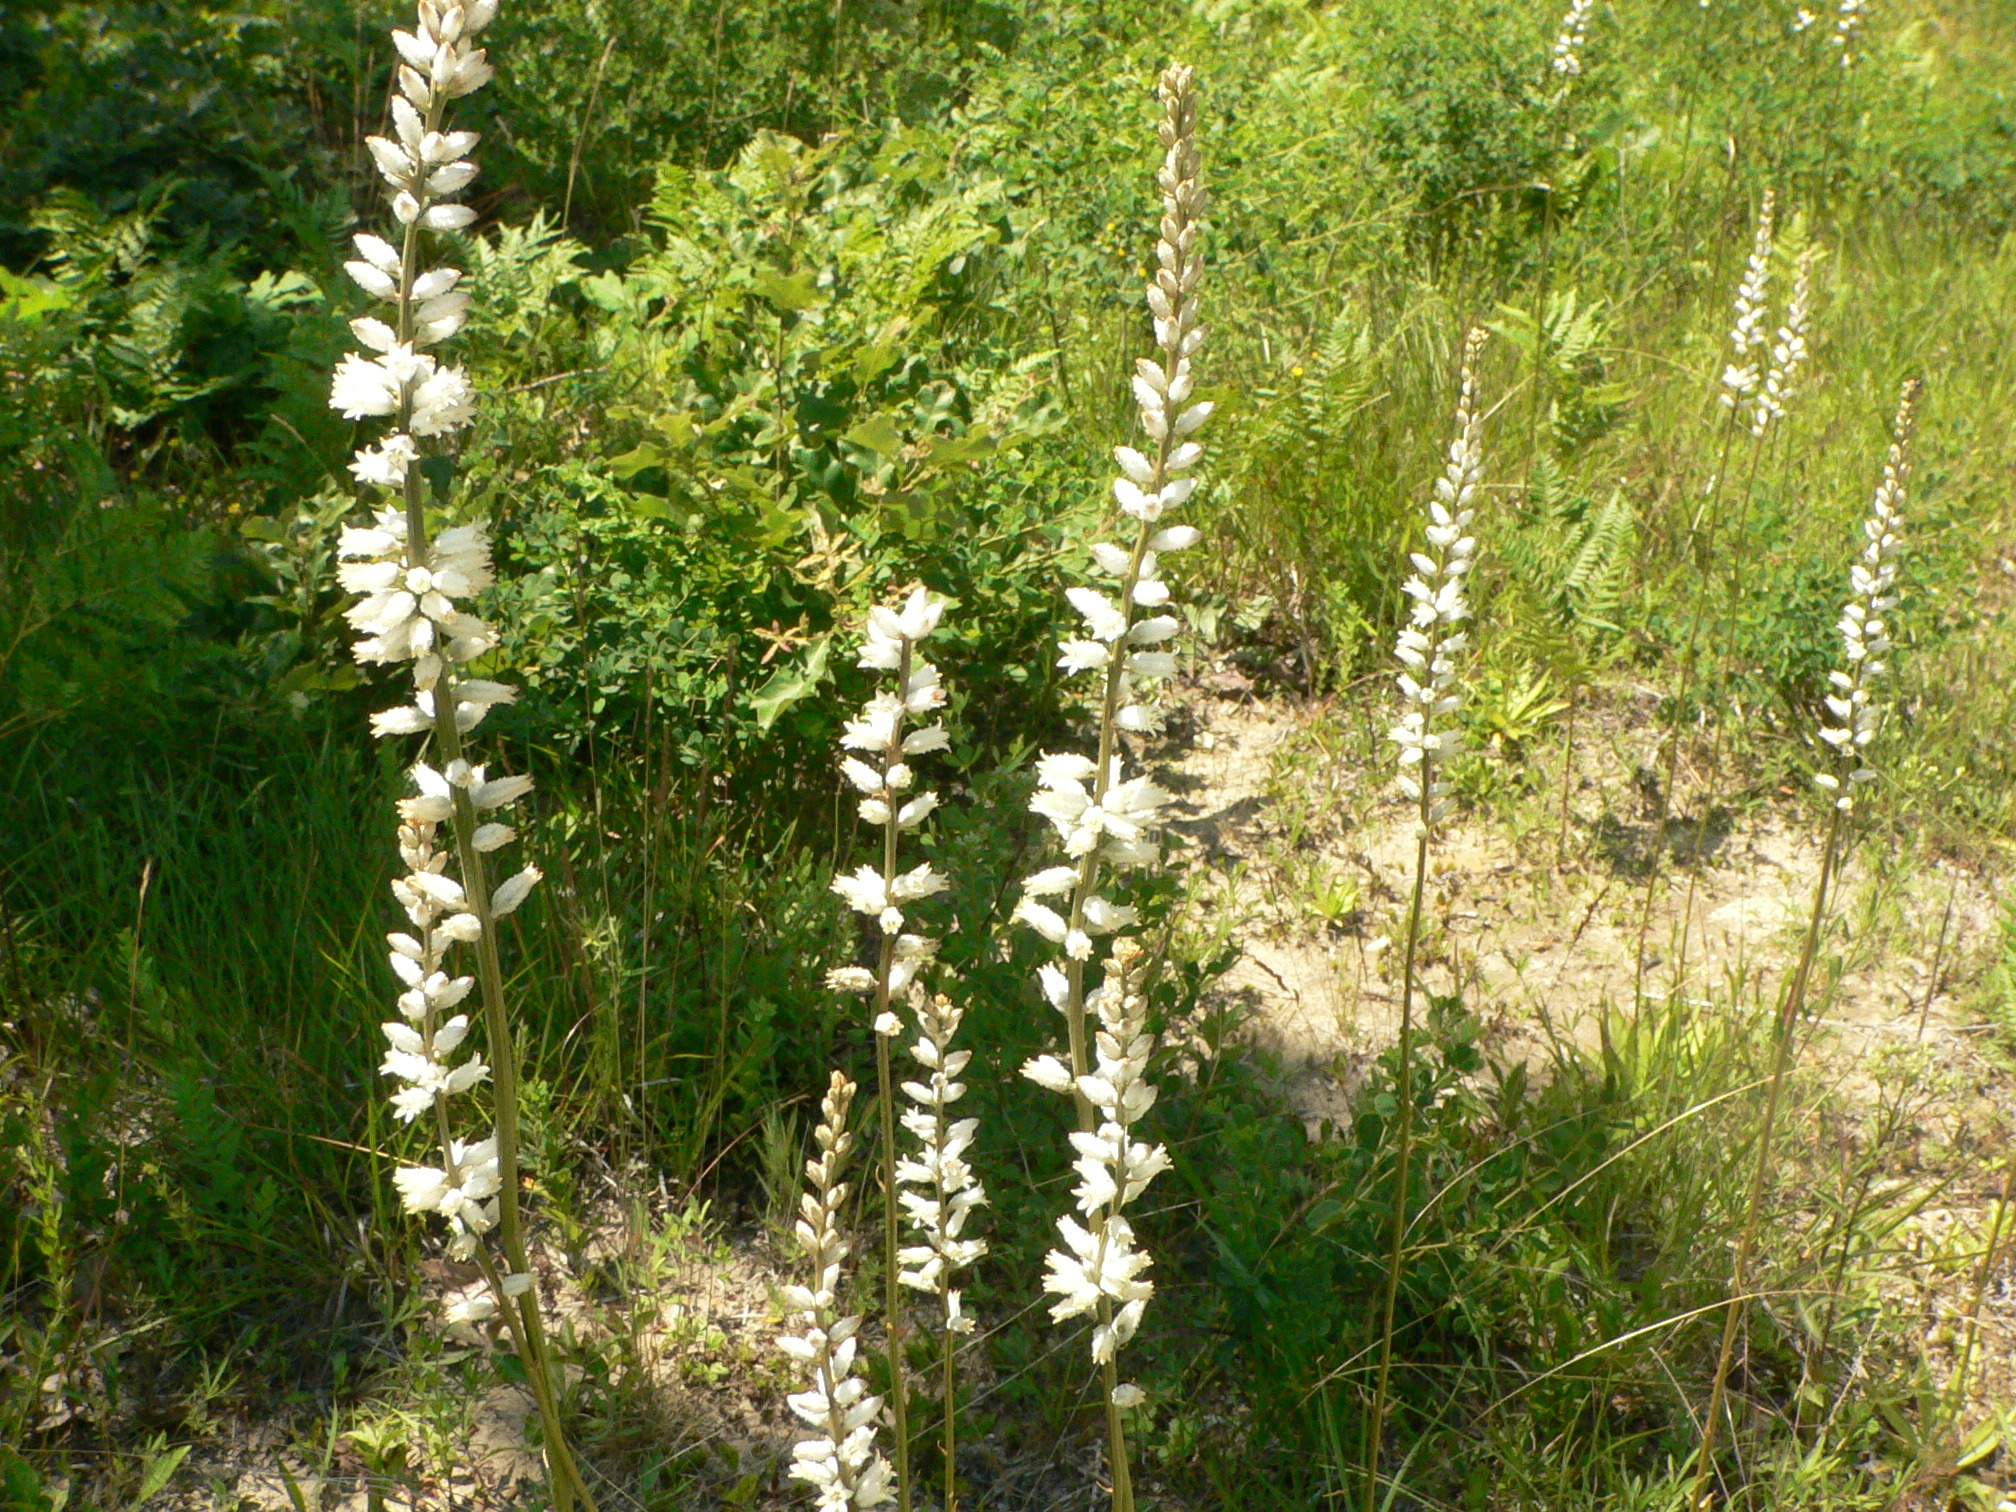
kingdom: Plantae
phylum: Tracheophyta
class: Liliopsida
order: Dioscoreales
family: Nartheciaceae
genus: Aletris
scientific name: Aletris farinosa
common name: Colicroot
